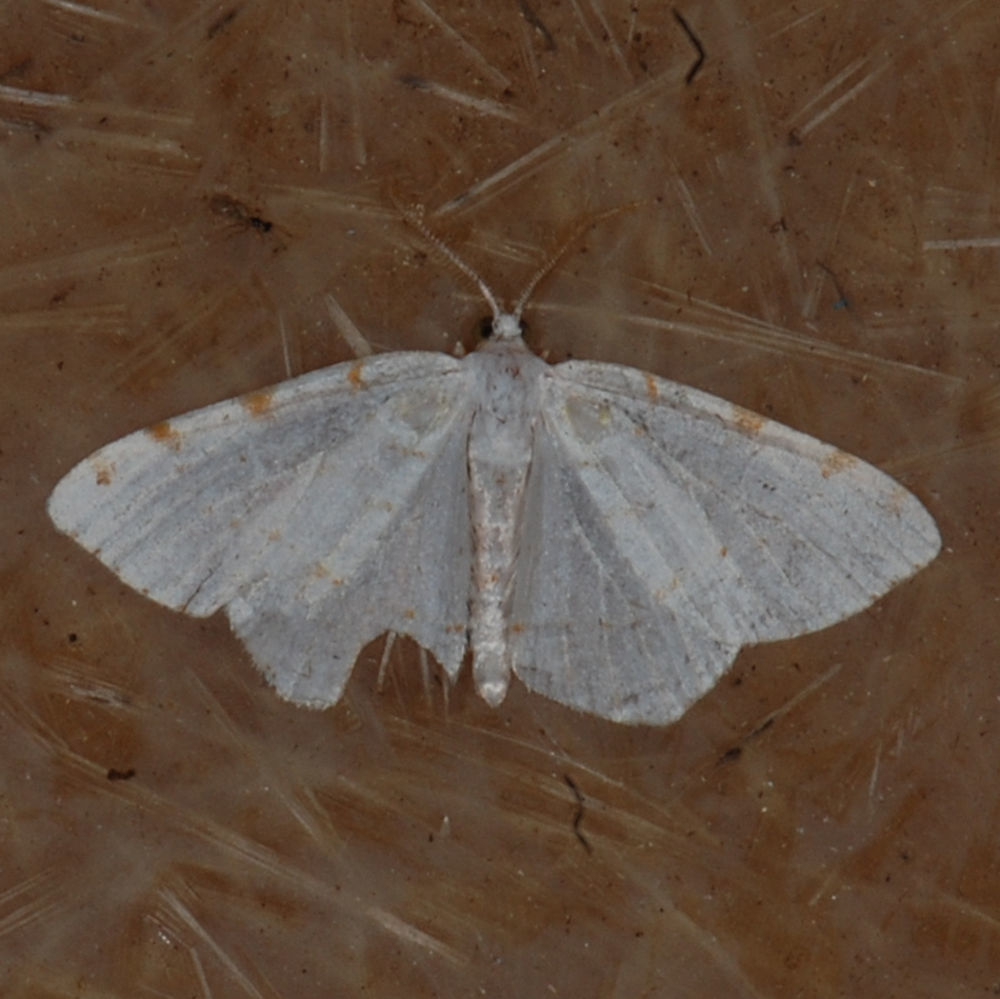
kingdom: Animalia
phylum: Arthropoda
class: Insecta
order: Lepidoptera
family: Geometridae
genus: Macaria
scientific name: Macaria pustularia
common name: Lesser maple spanworm moth
